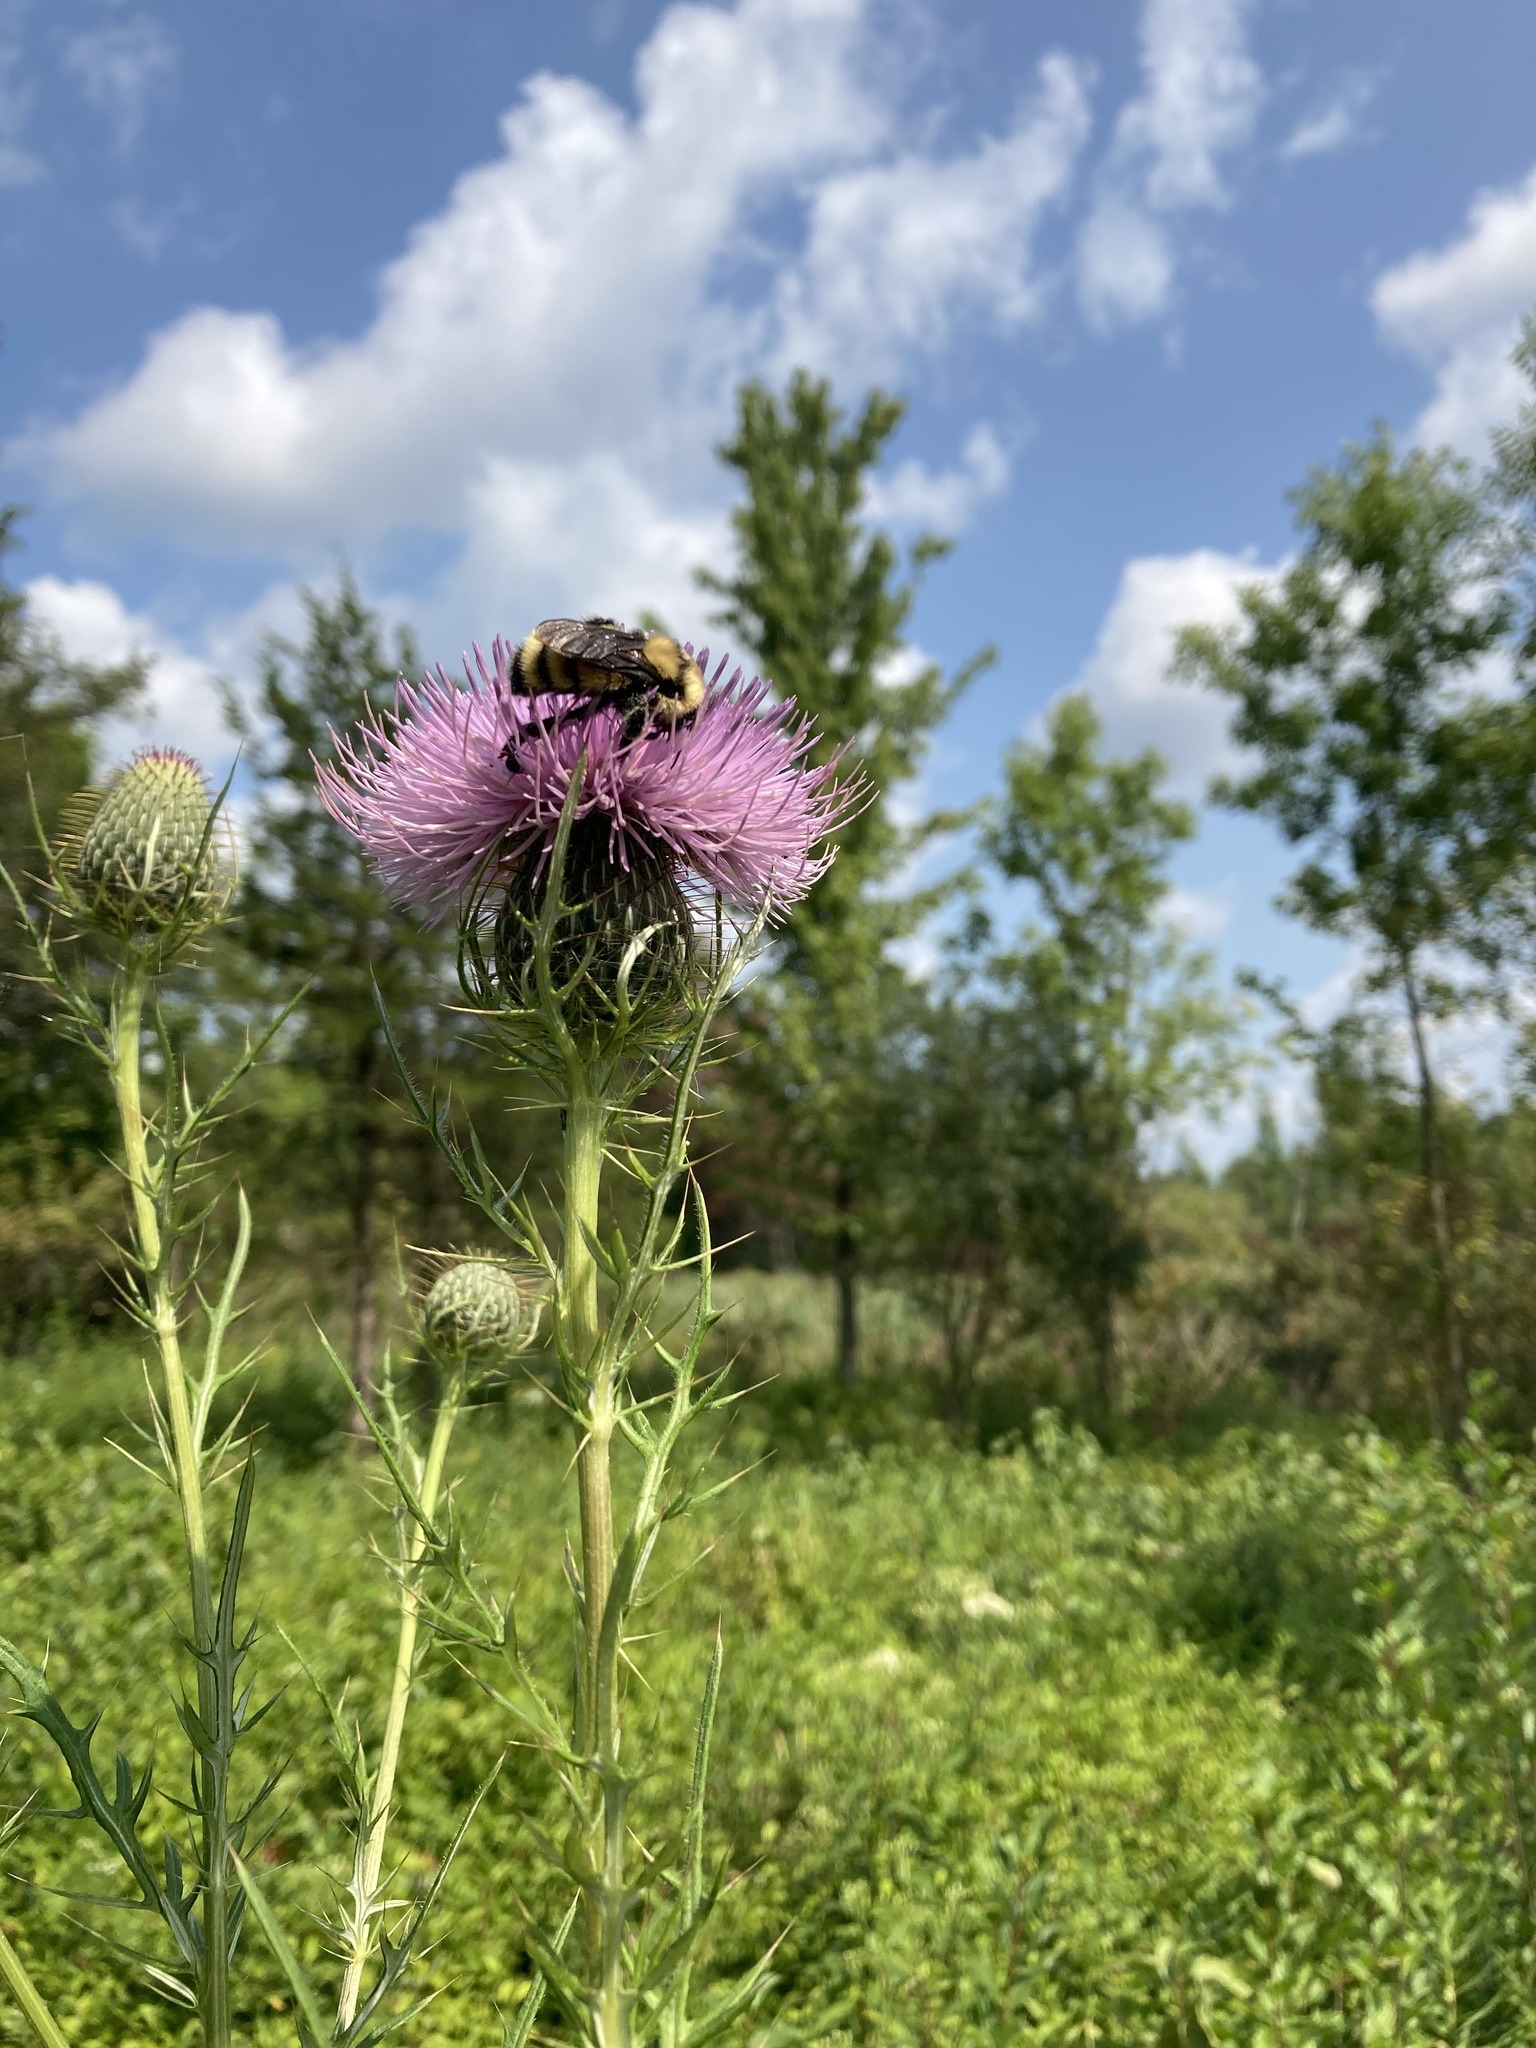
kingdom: Animalia
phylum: Arthropoda
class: Insecta
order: Hymenoptera
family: Apidae
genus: Bombus
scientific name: Bombus fervidus
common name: Yellow bumble bee
